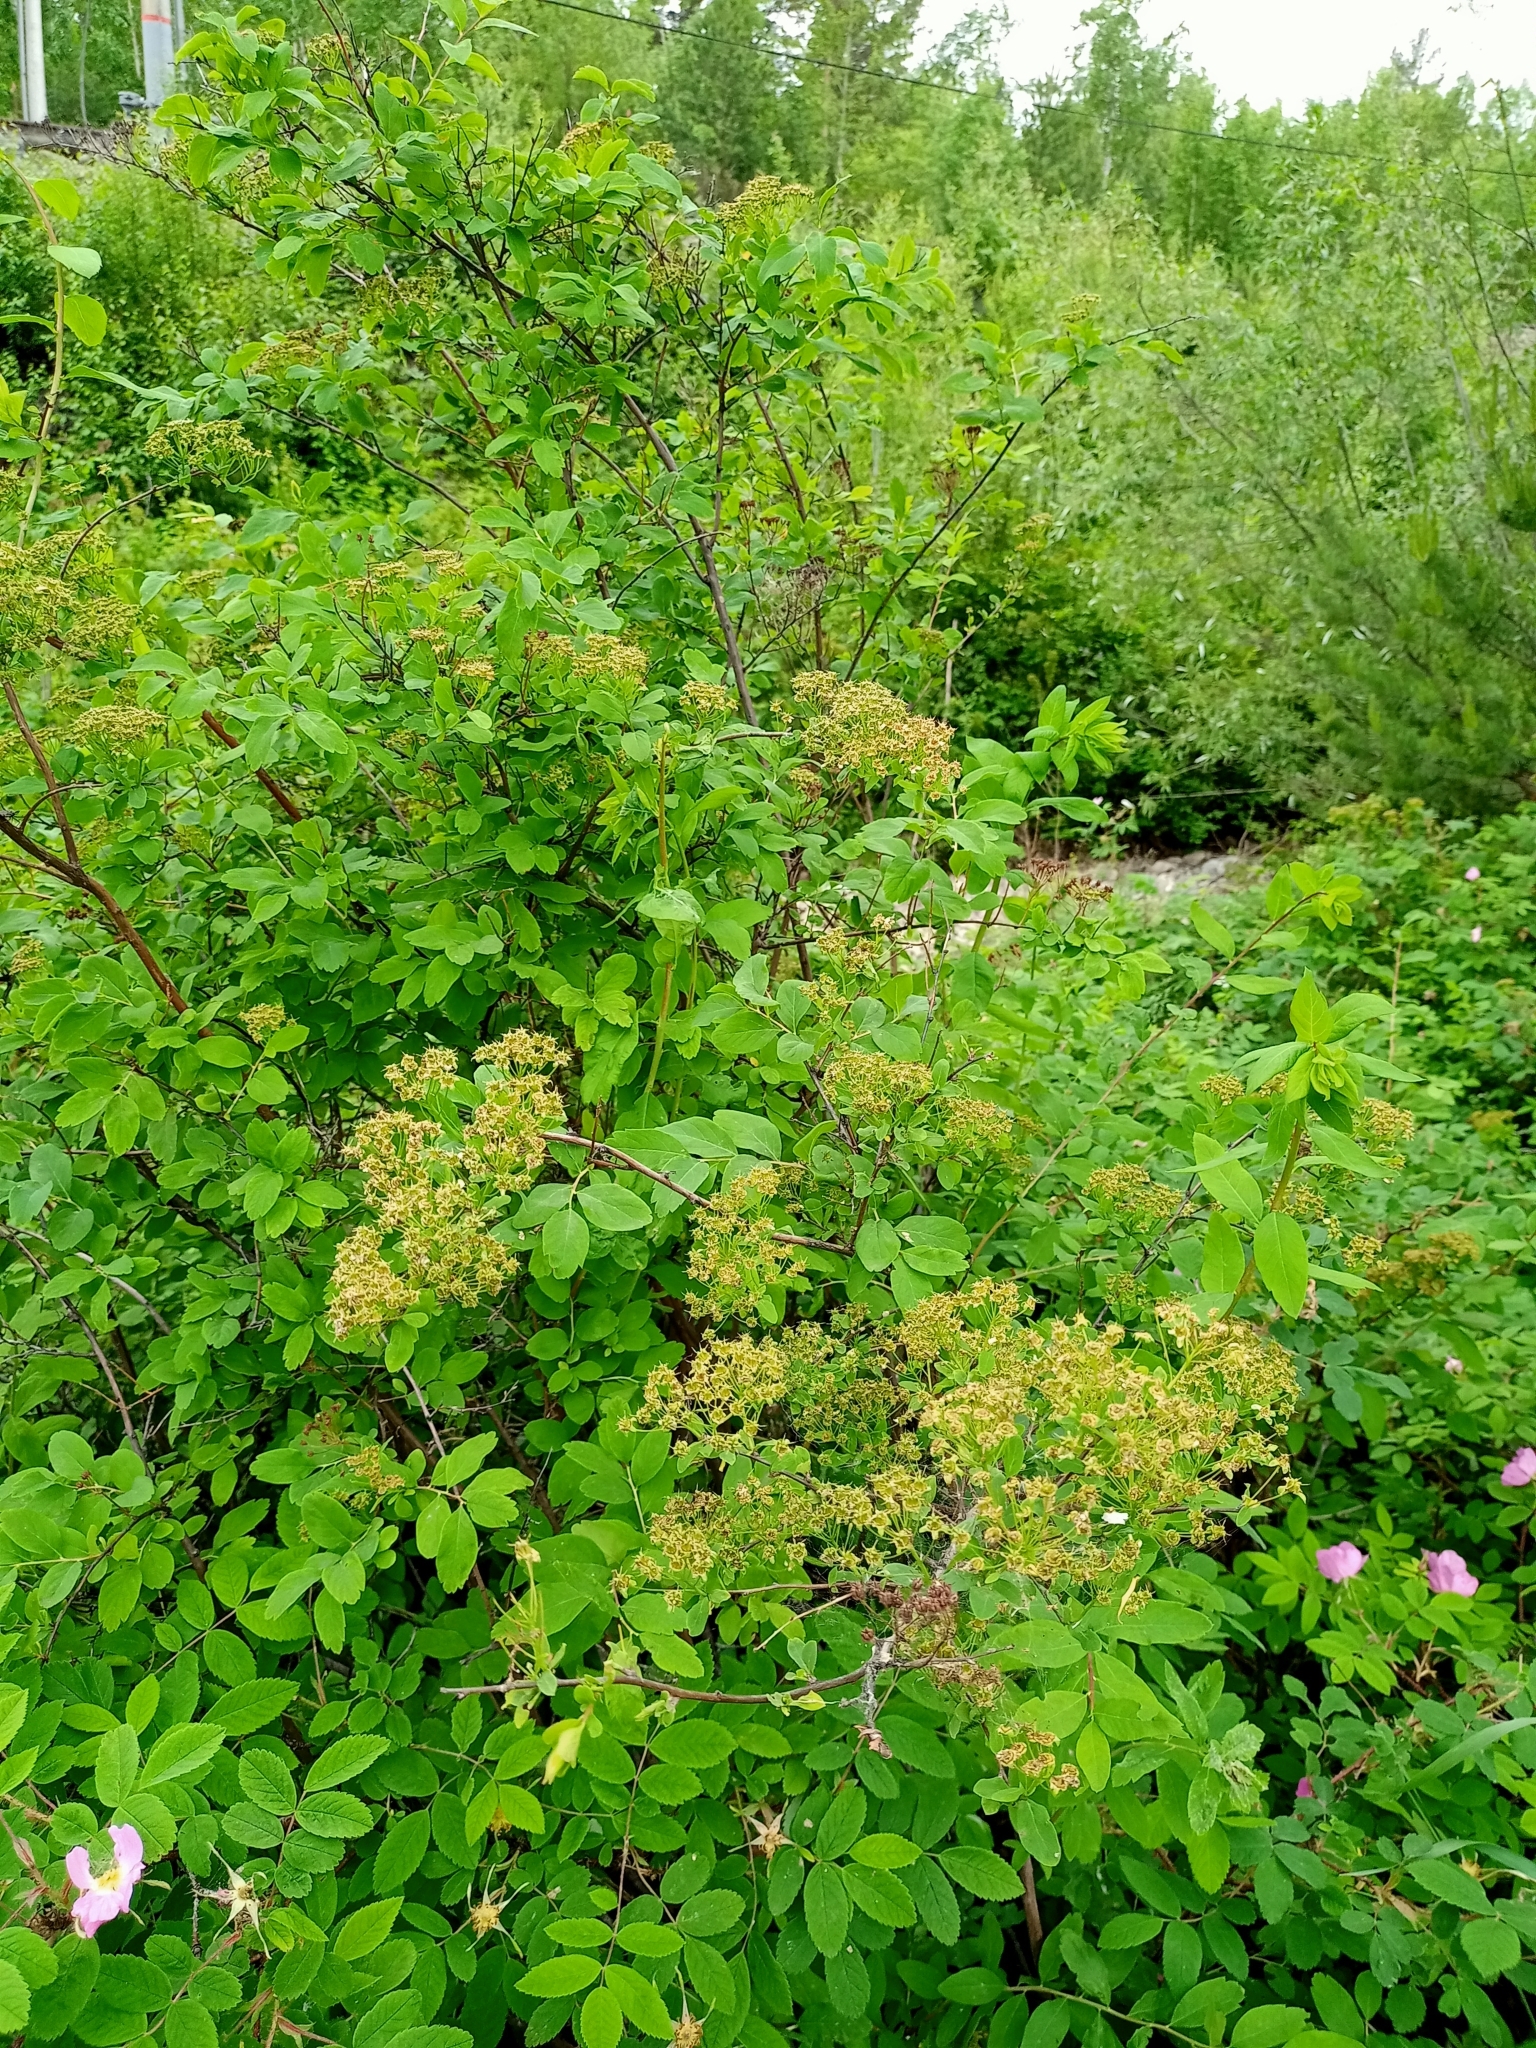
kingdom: Plantae
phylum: Tracheophyta
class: Magnoliopsida
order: Rosales
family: Rosaceae
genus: Spiraea
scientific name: Spiraea flexuosa
